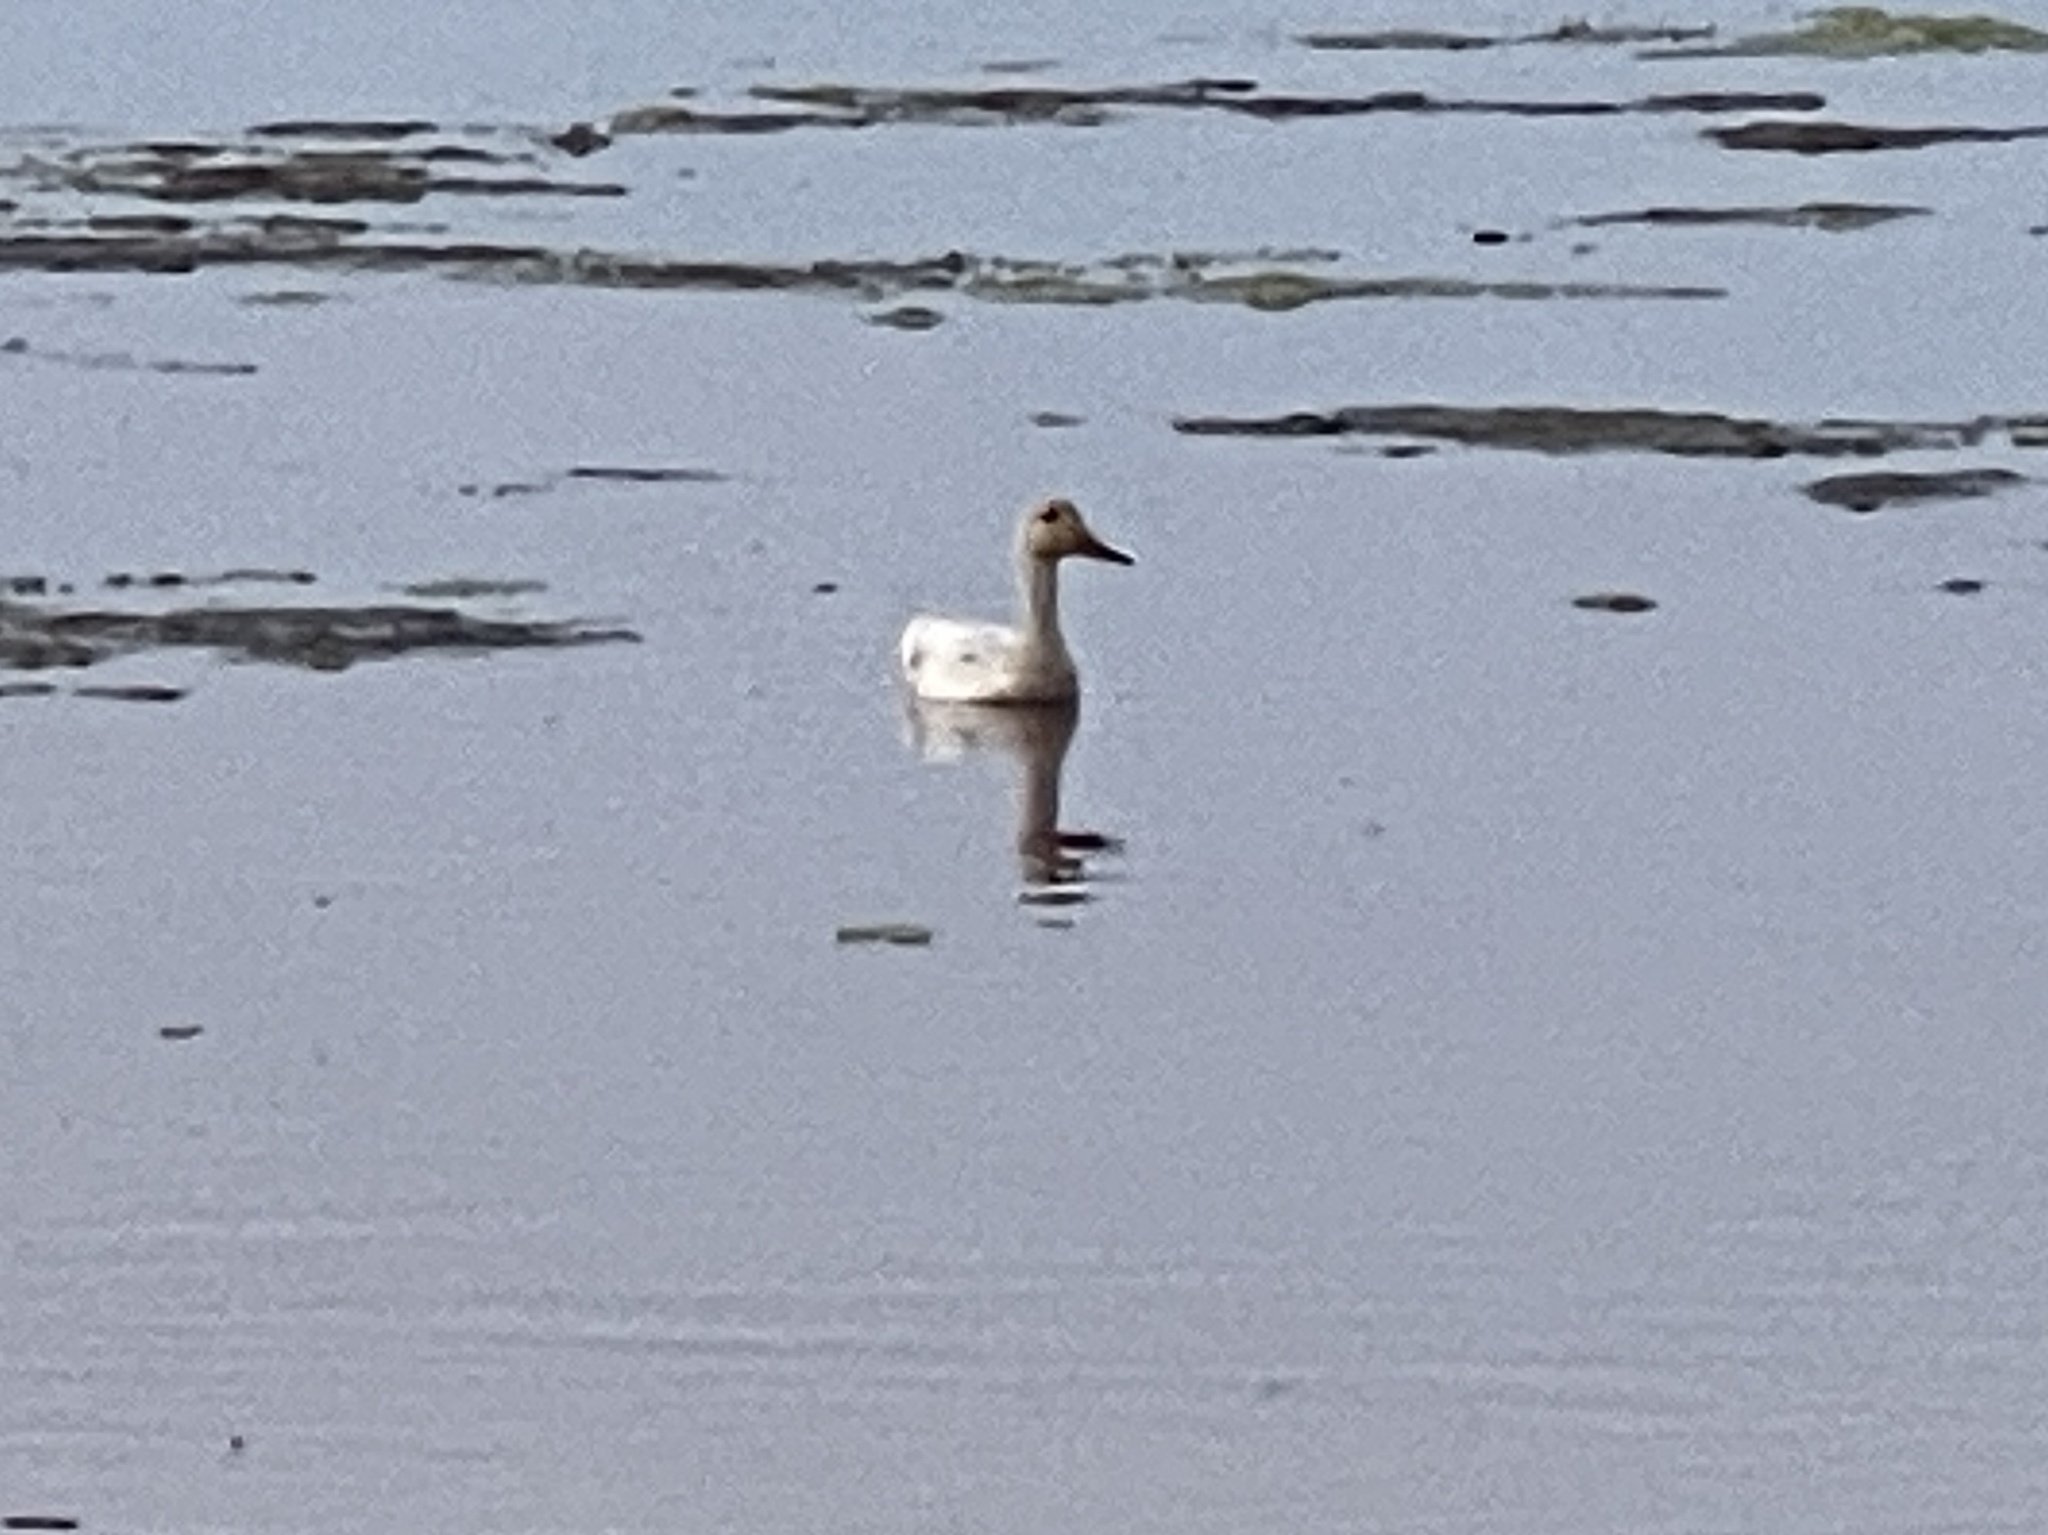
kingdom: Animalia
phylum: Chordata
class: Aves
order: Anseriformes
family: Anatidae
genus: Anas
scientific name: Anas platyrhynchos
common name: Mallard
